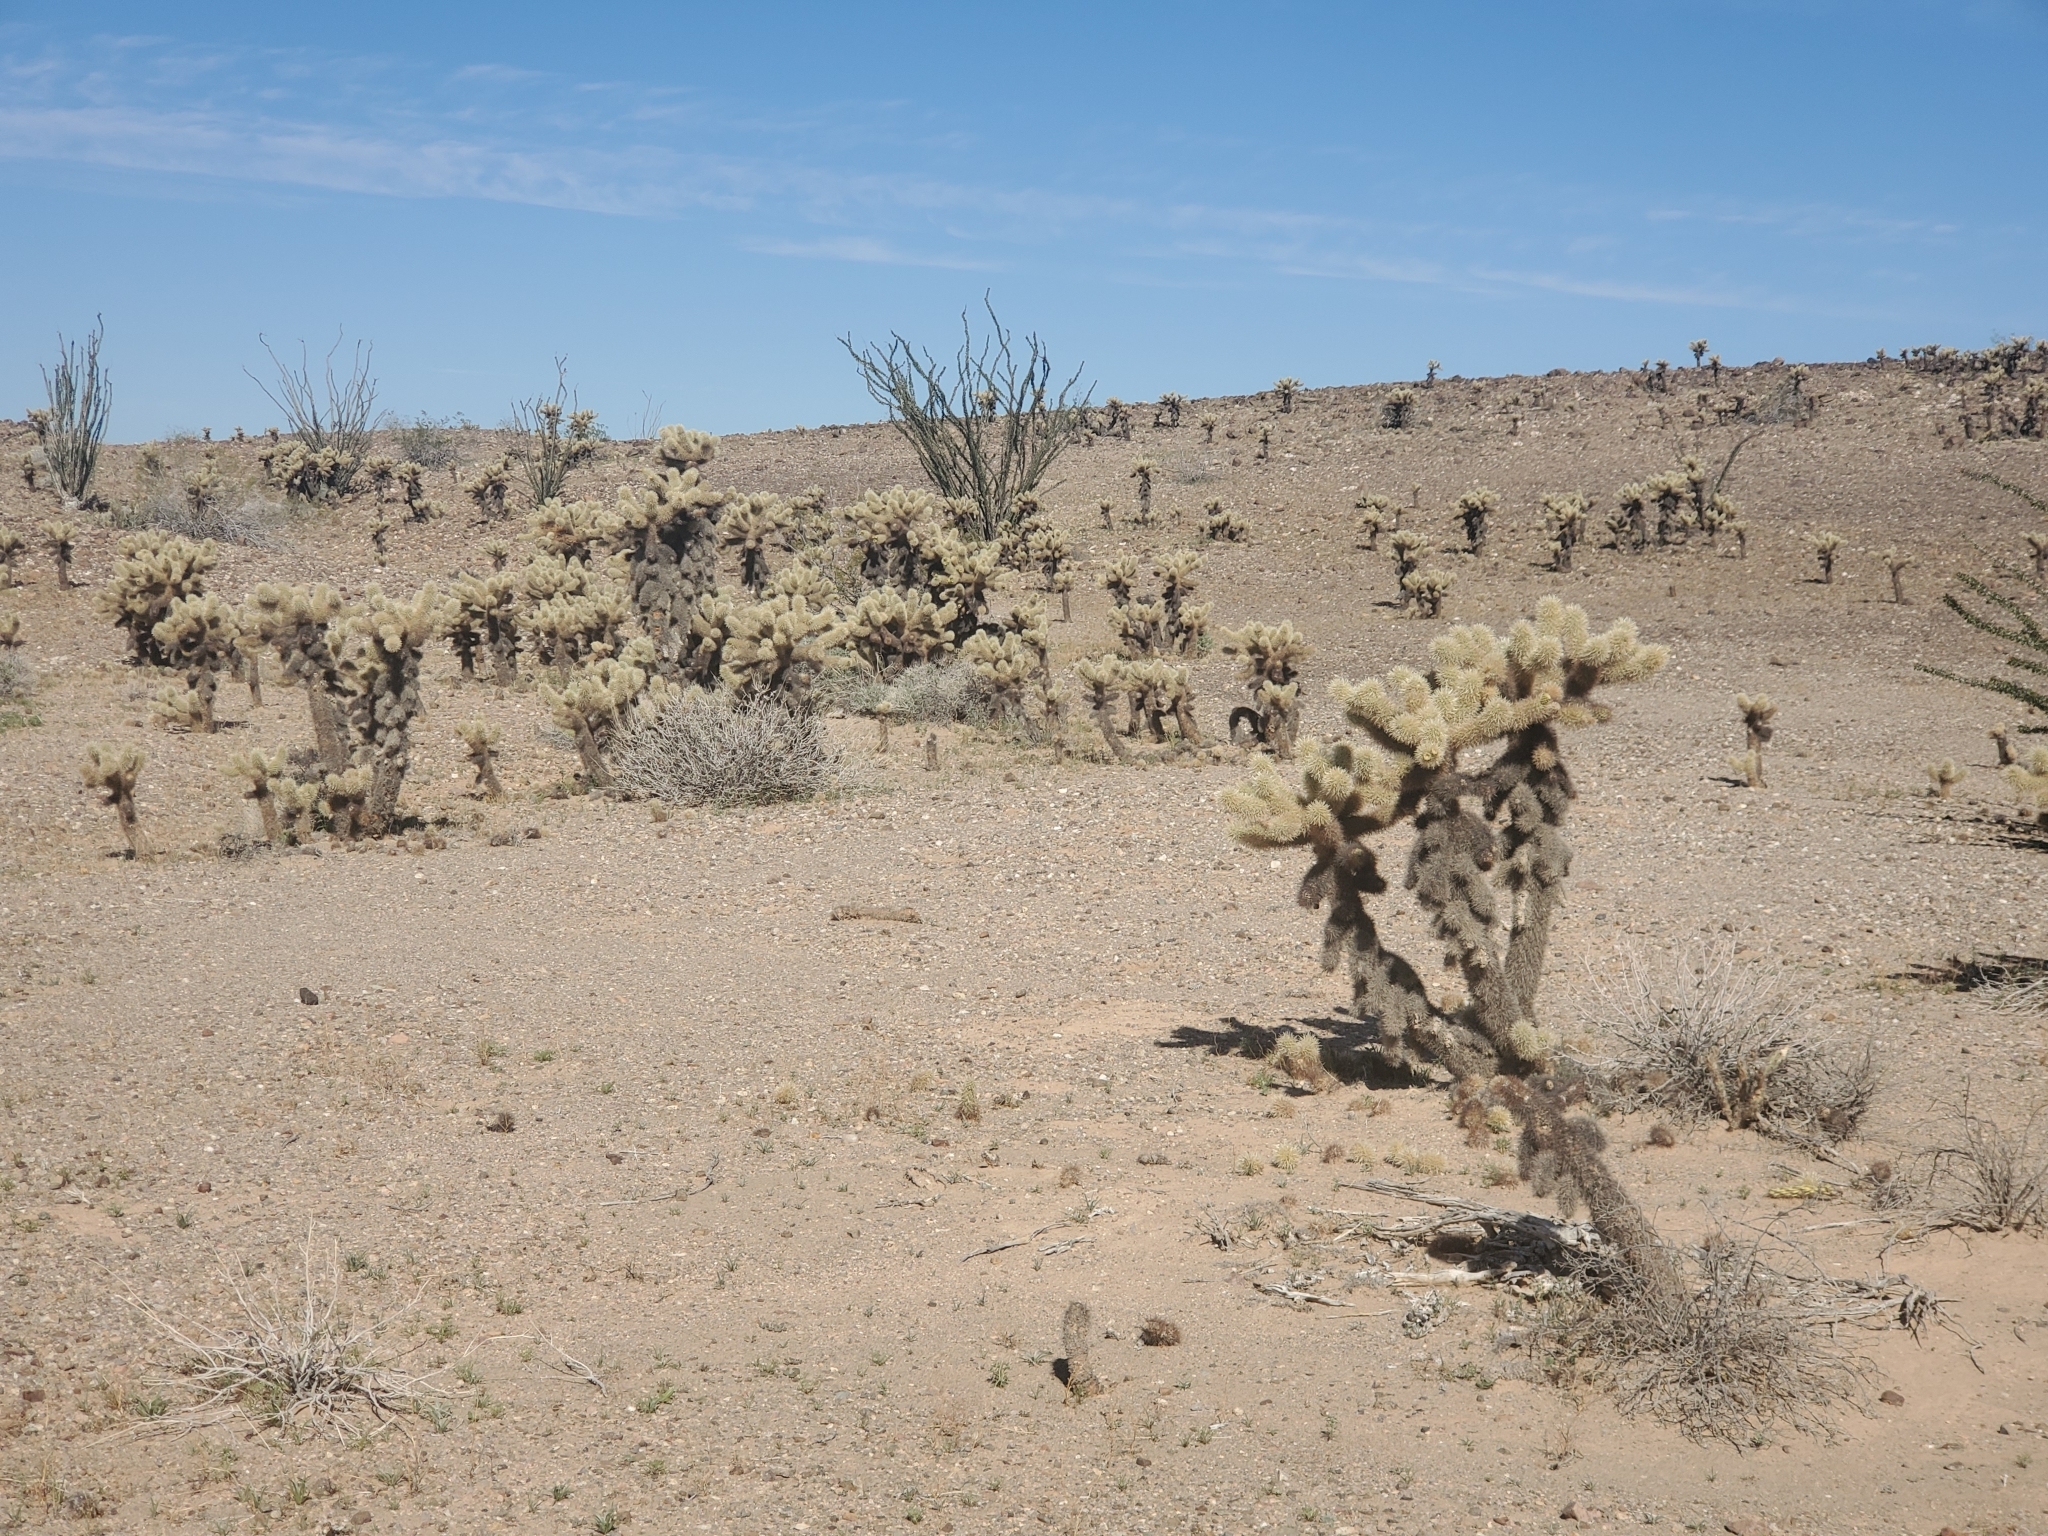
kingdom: Plantae
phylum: Tracheophyta
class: Magnoliopsida
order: Caryophyllales
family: Cactaceae
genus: Cylindropuntia
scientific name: Cylindropuntia fosbergii
